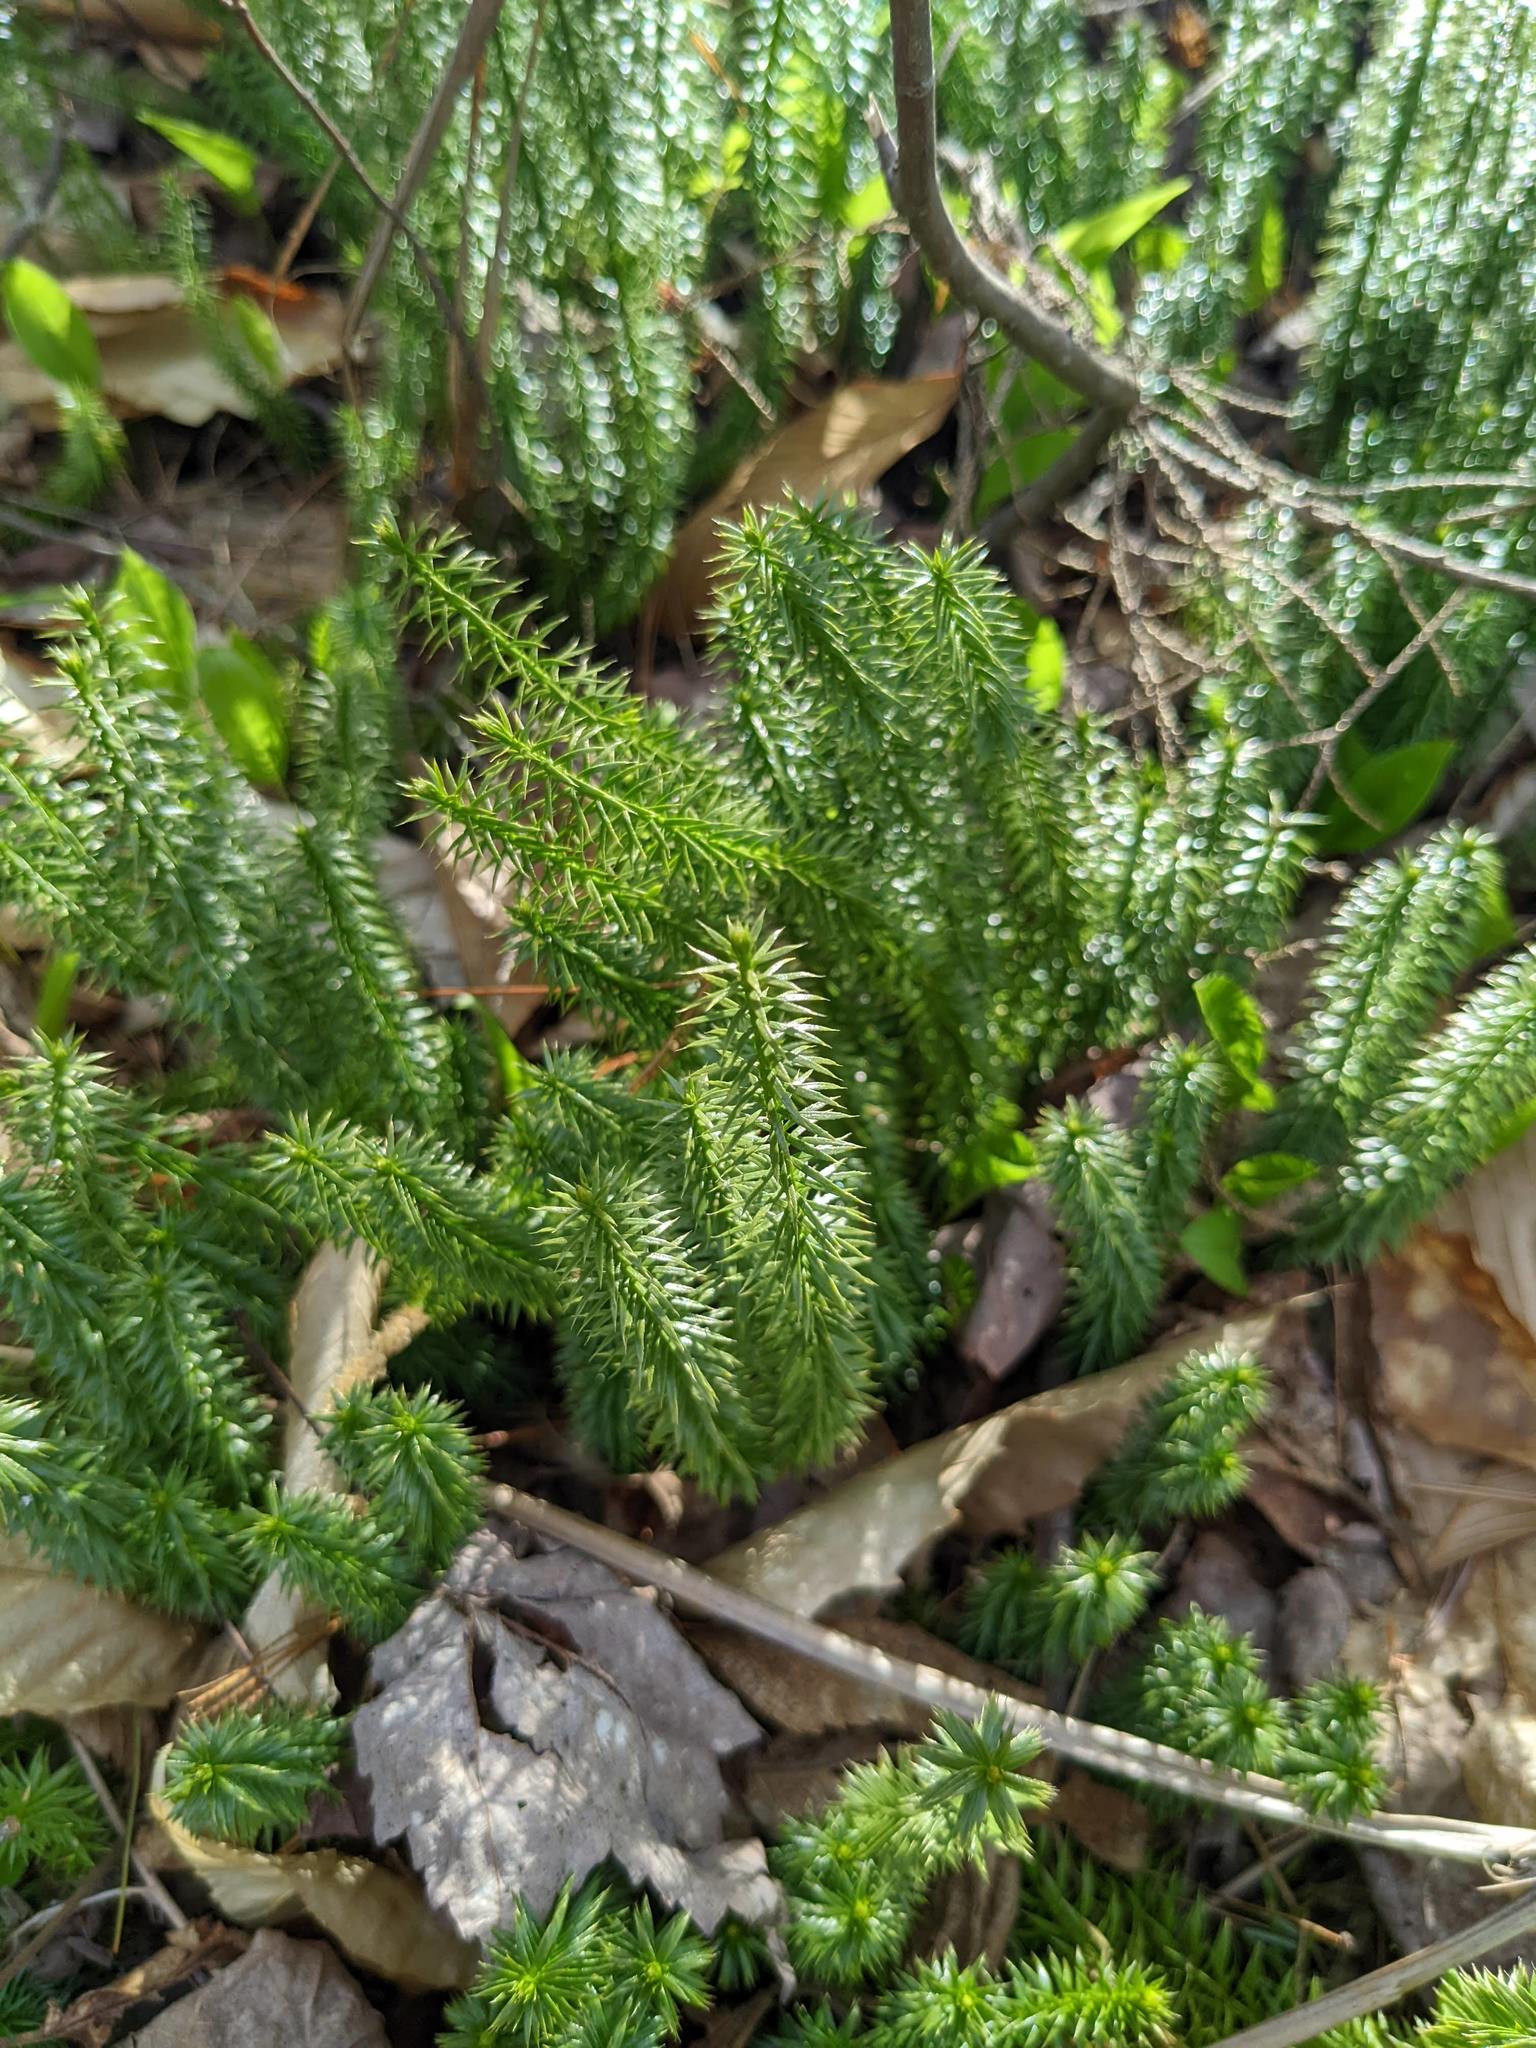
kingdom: Plantae
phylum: Tracheophyta
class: Lycopodiopsida
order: Lycopodiales
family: Lycopodiaceae
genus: Spinulum
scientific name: Spinulum annotinum
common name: Interrupted club-moss
